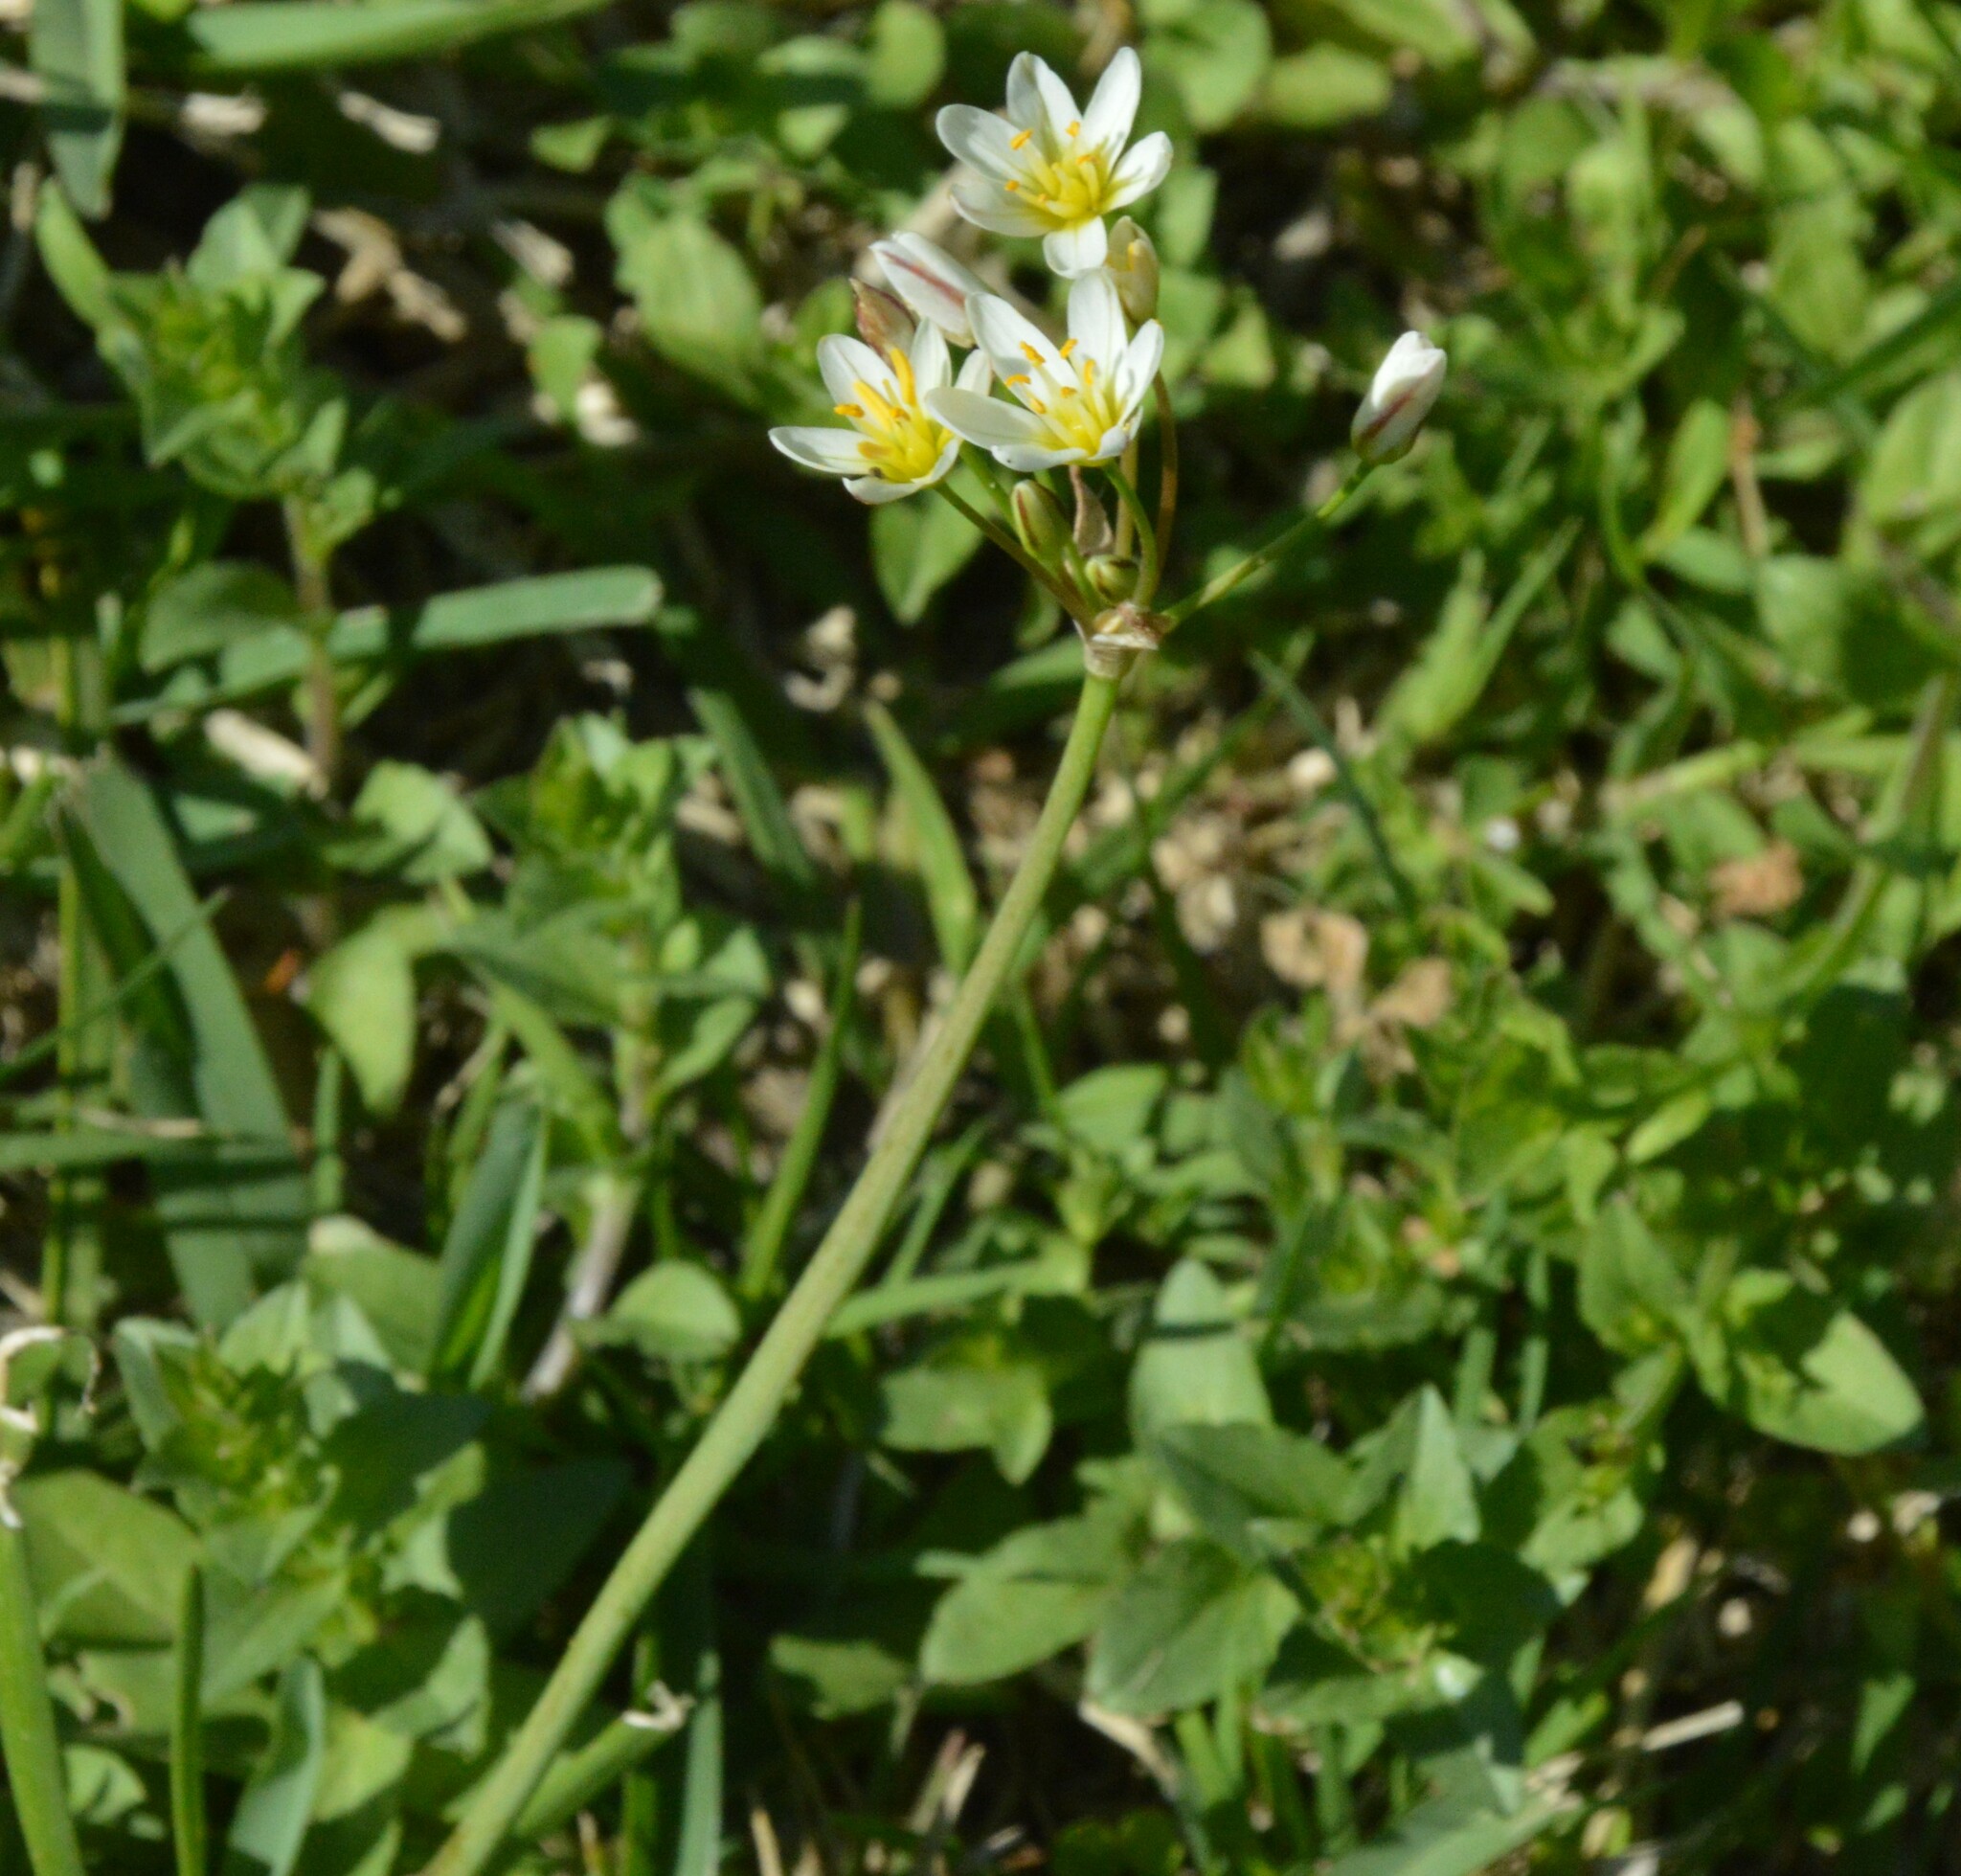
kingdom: Plantae
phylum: Tracheophyta
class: Liliopsida
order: Asparagales
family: Amaryllidaceae
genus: Nothoscordum
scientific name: Nothoscordum bivalve
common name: Crow-poison
